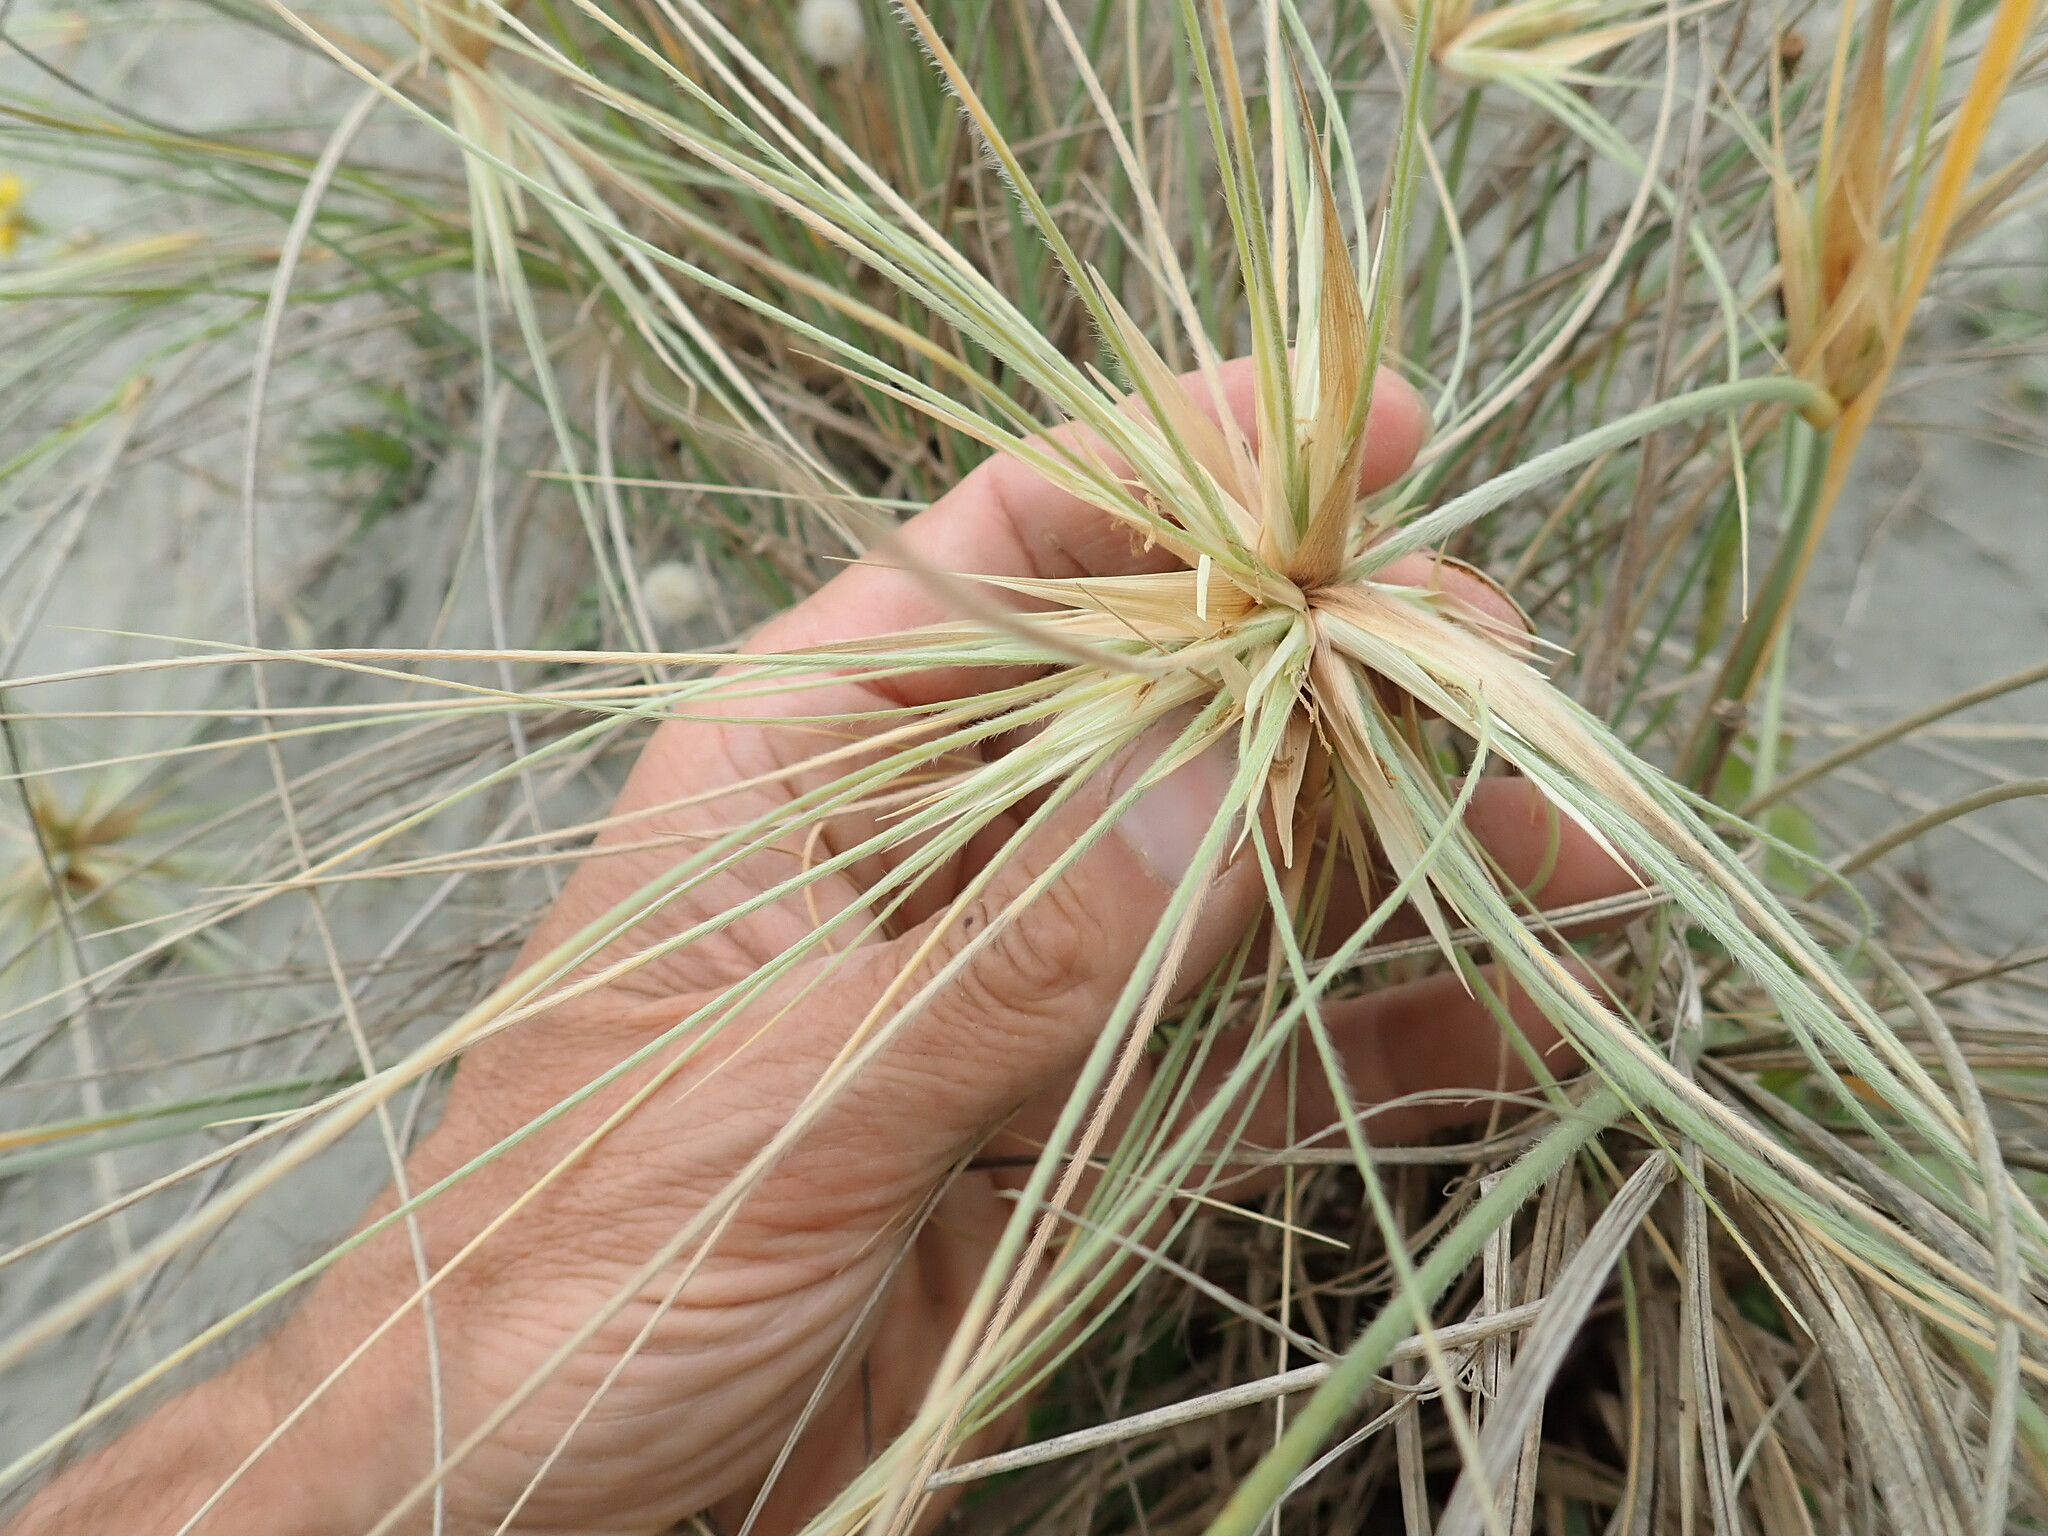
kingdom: Plantae
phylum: Tracheophyta
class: Liliopsida
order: Poales
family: Poaceae
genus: Spinifex
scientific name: Spinifex sericeus
